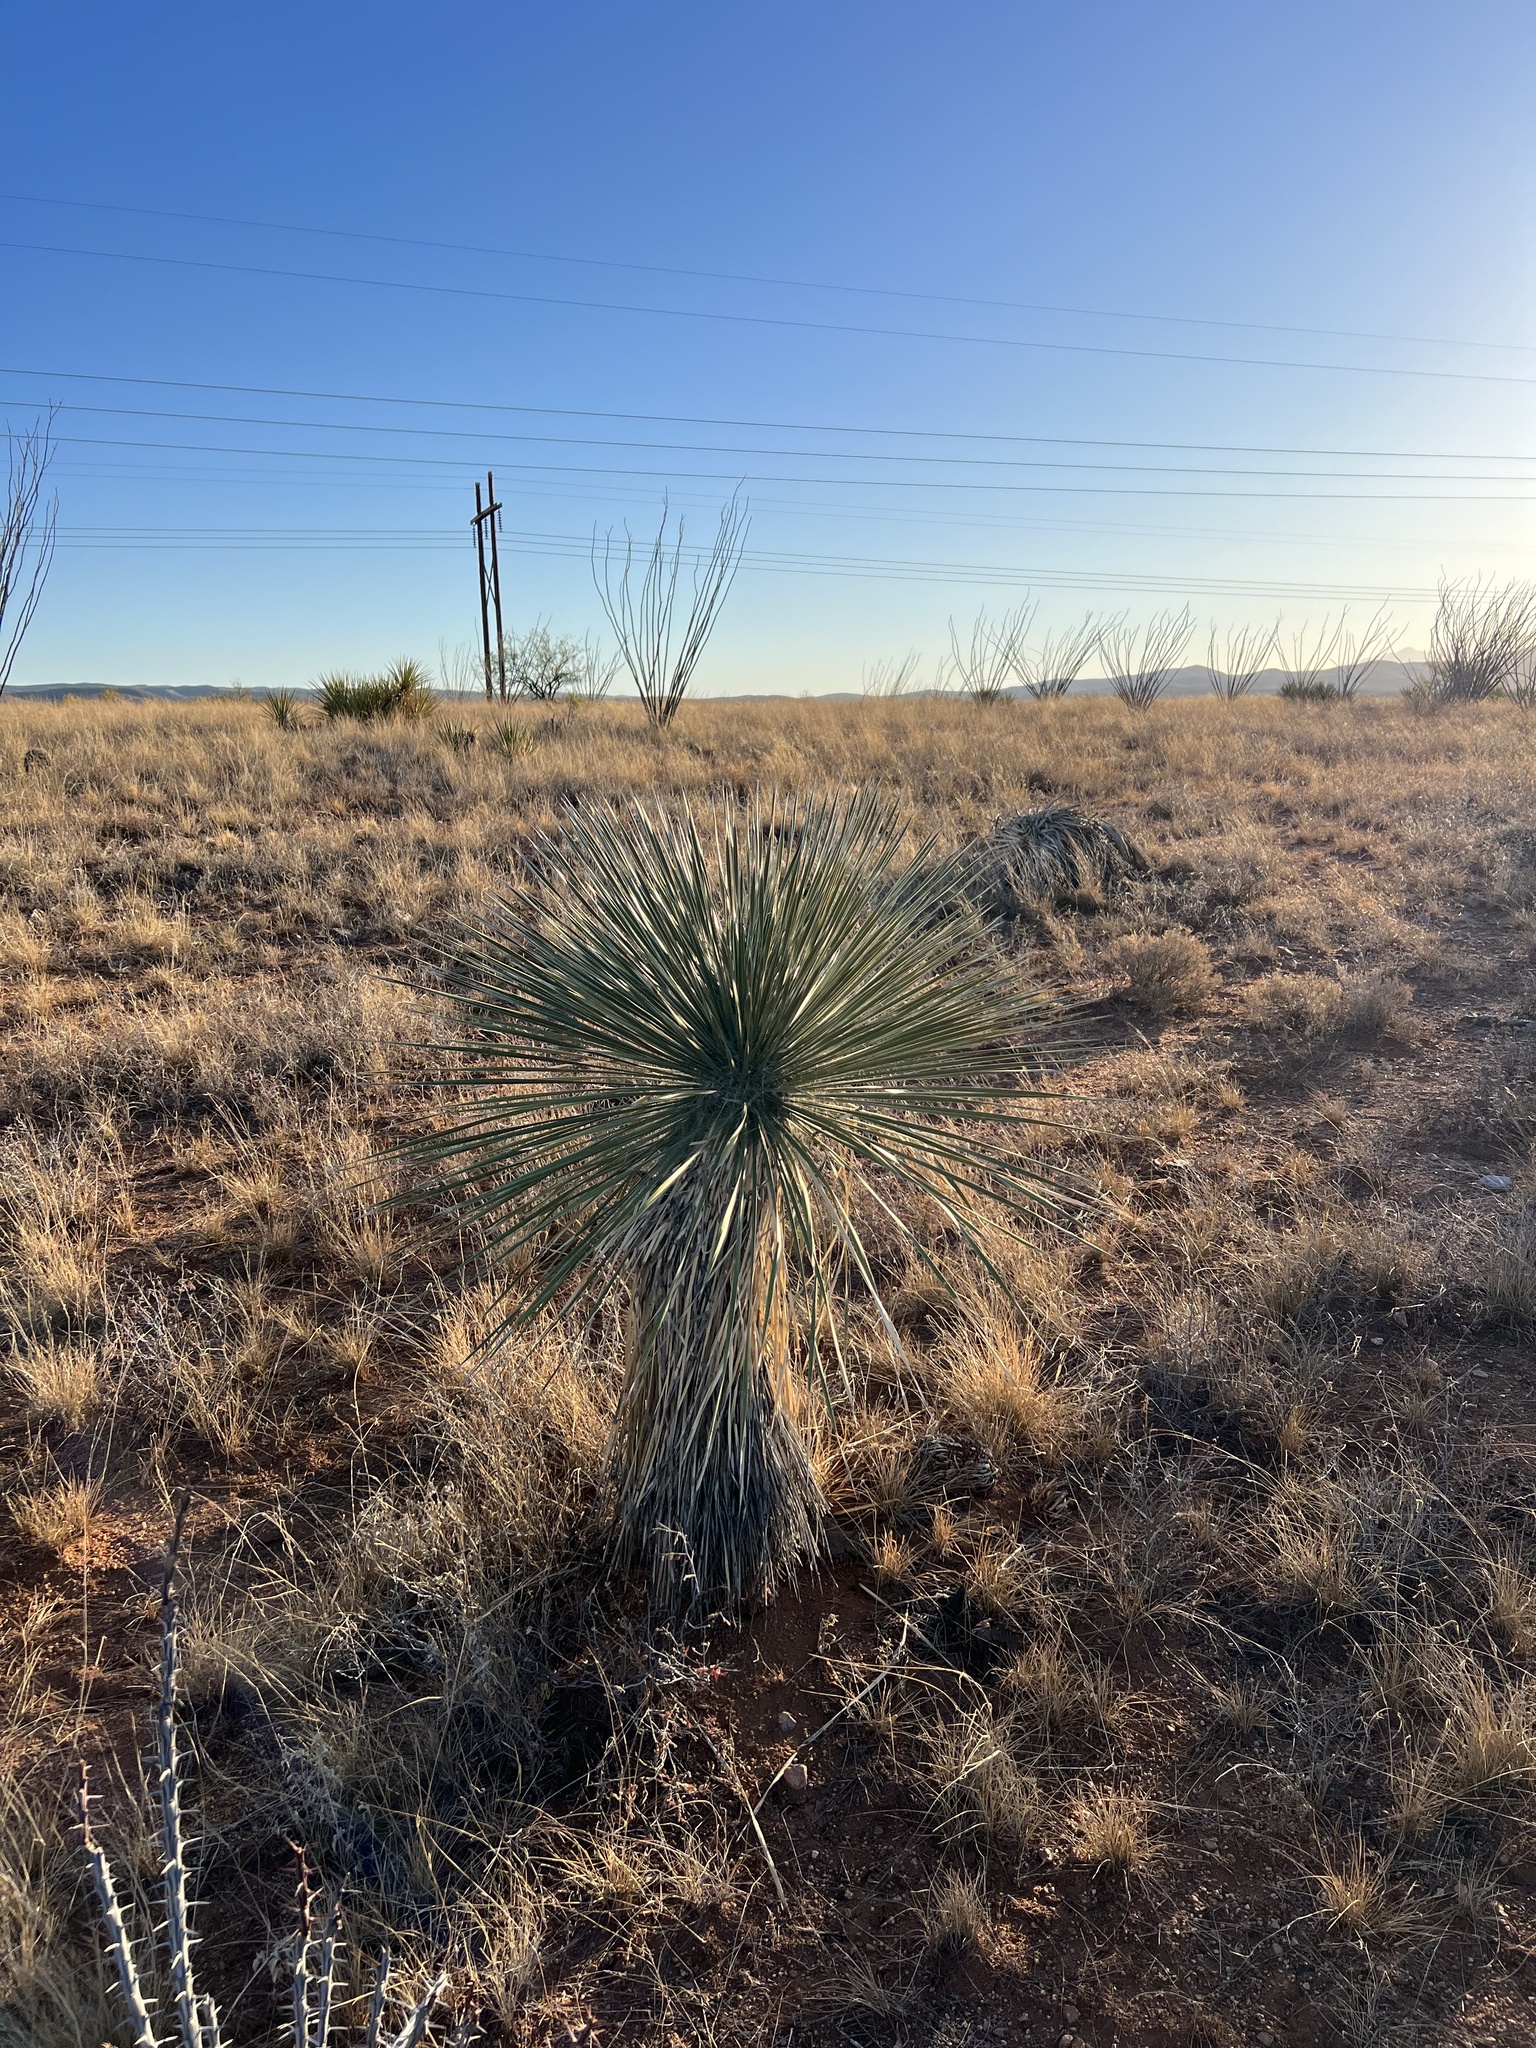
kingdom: Plantae
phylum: Tracheophyta
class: Liliopsida
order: Asparagales
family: Asparagaceae
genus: Yucca
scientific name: Yucca elata
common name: Palmella
